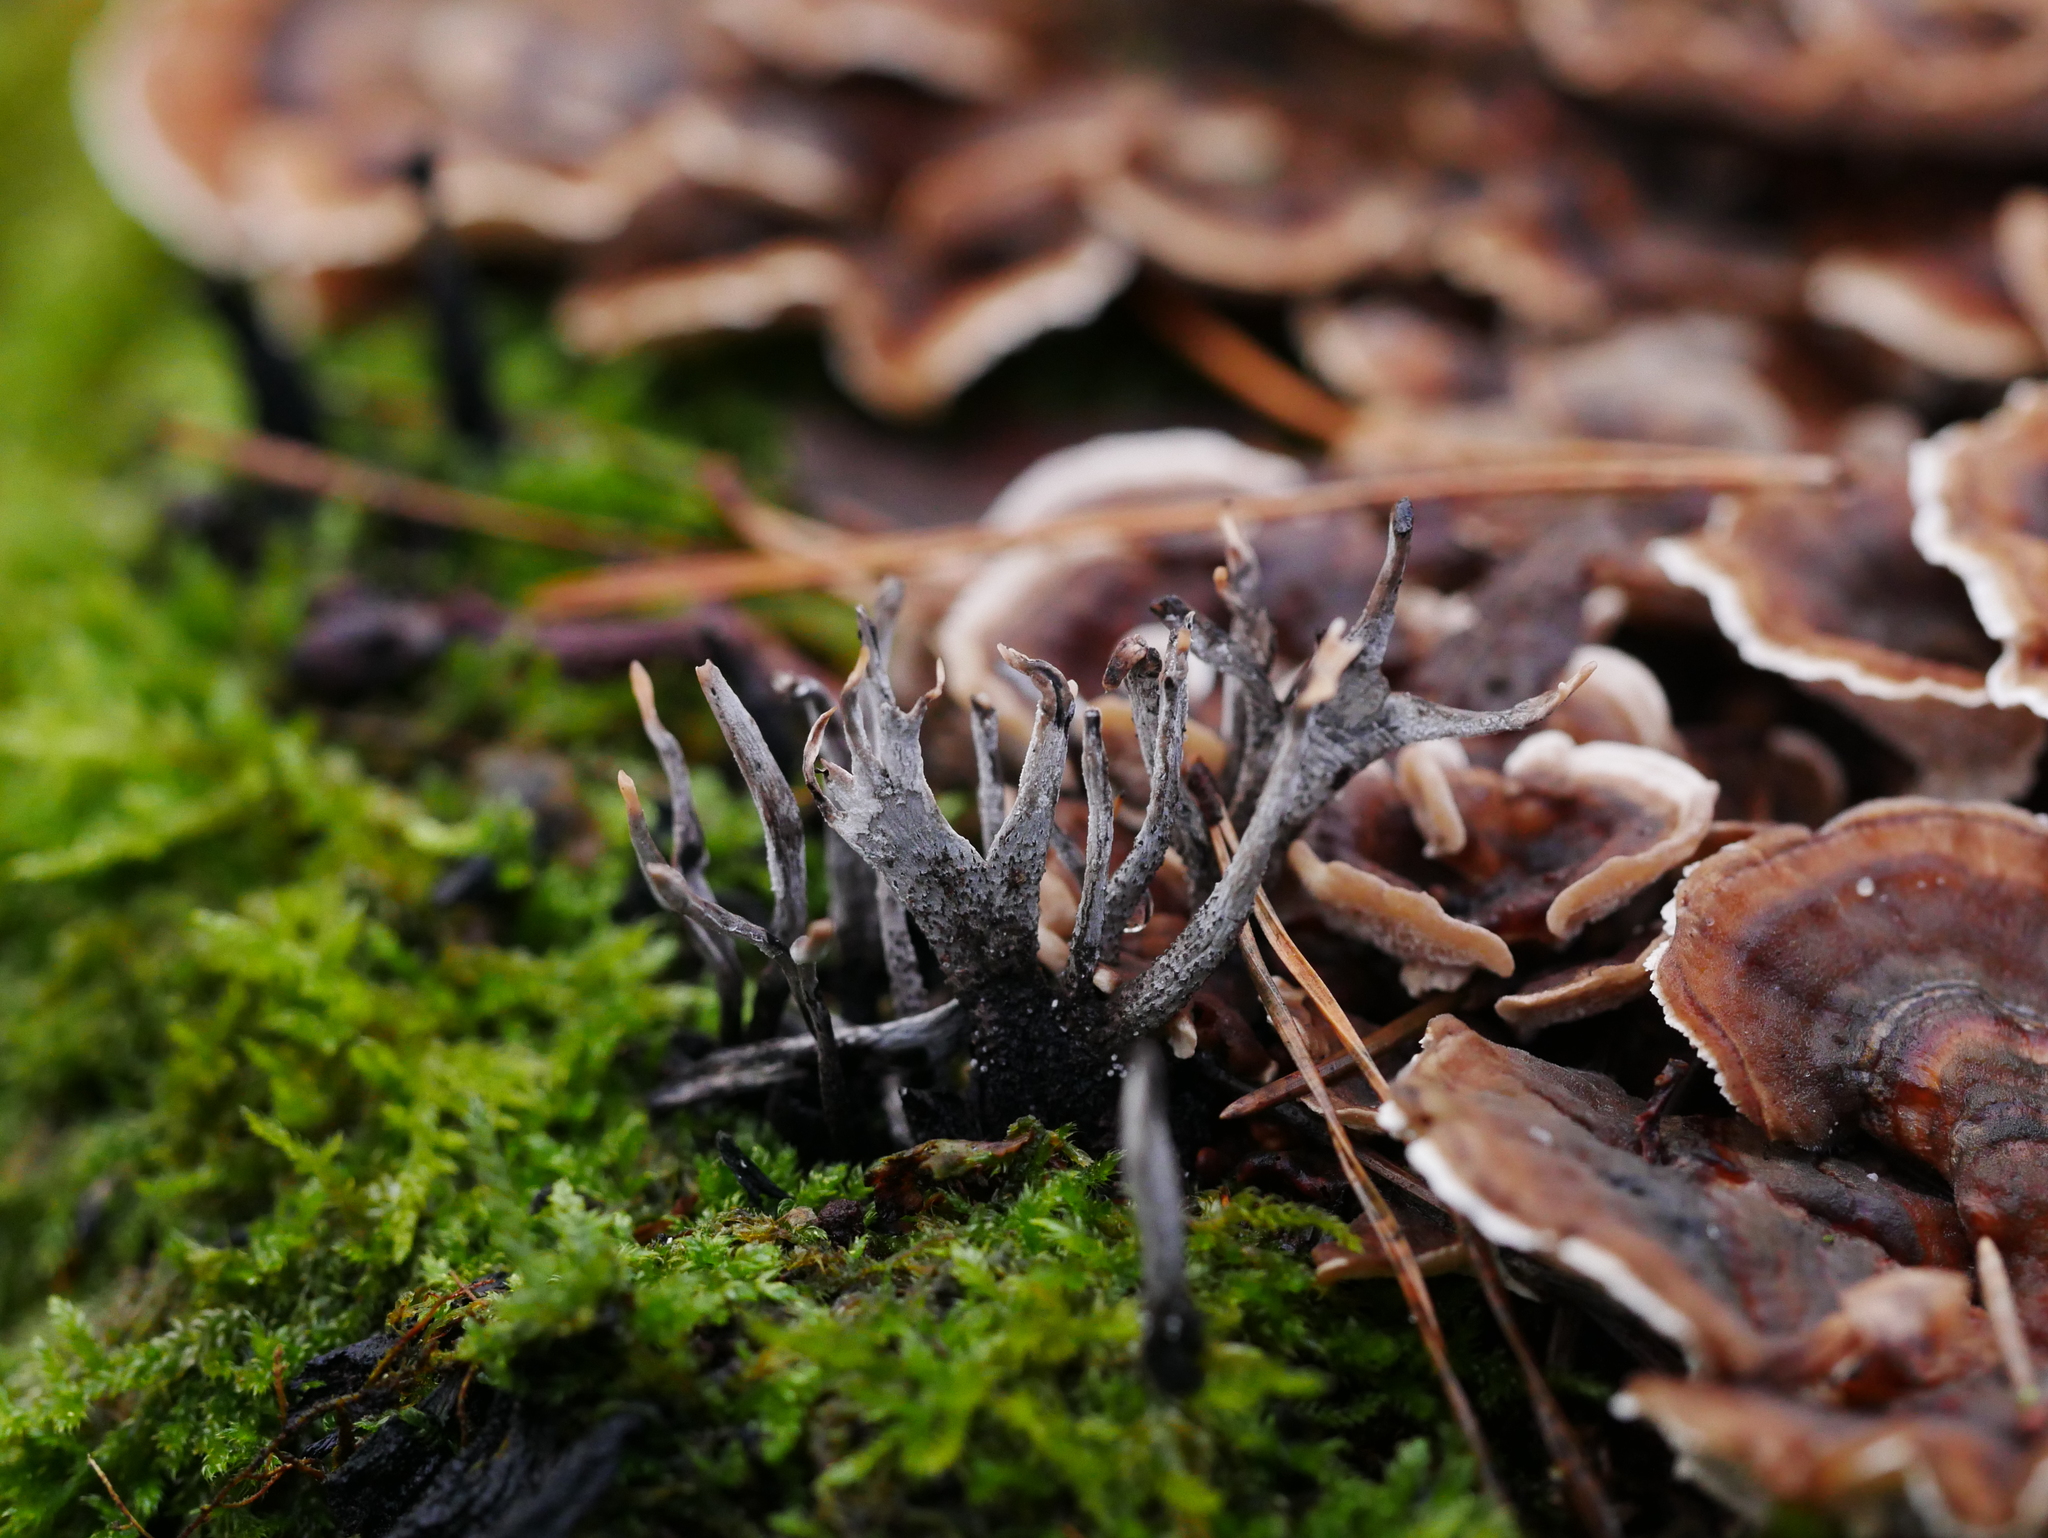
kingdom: Fungi
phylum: Ascomycota
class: Sordariomycetes
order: Xylariales
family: Xylariaceae
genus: Xylaria
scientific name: Xylaria hypoxylon
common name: Candle-snuff fungus
